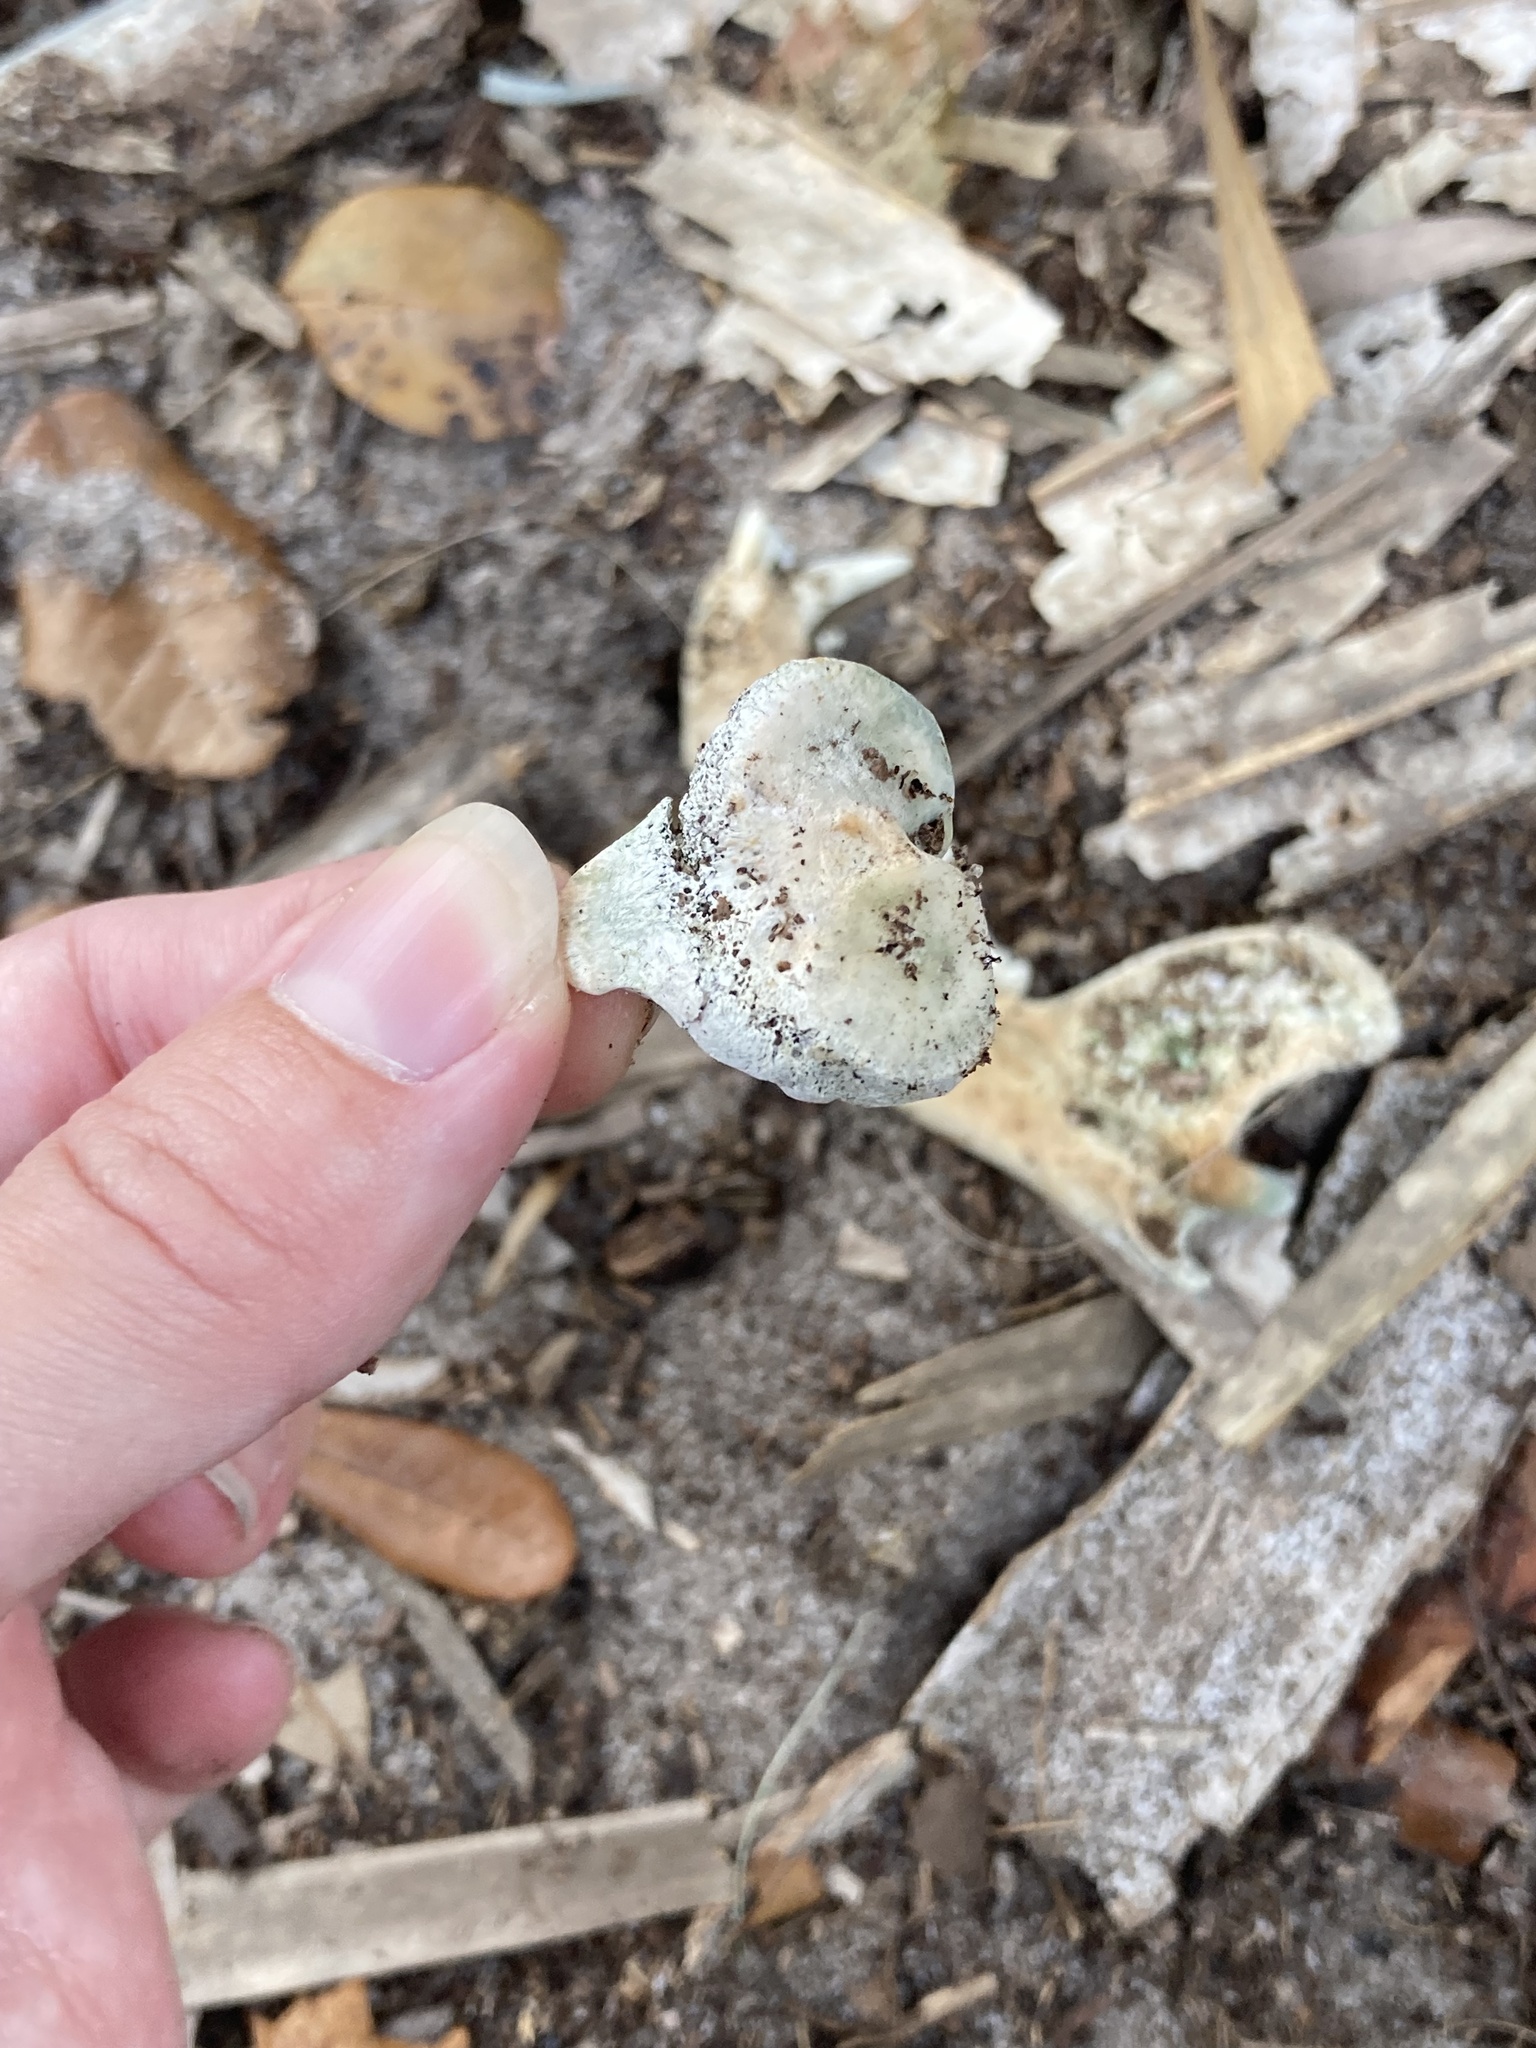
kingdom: Animalia
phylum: Chordata
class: Mammalia
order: Carnivora
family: Procyonidae
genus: Procyon
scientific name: Procyon lotor
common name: Raccoon
